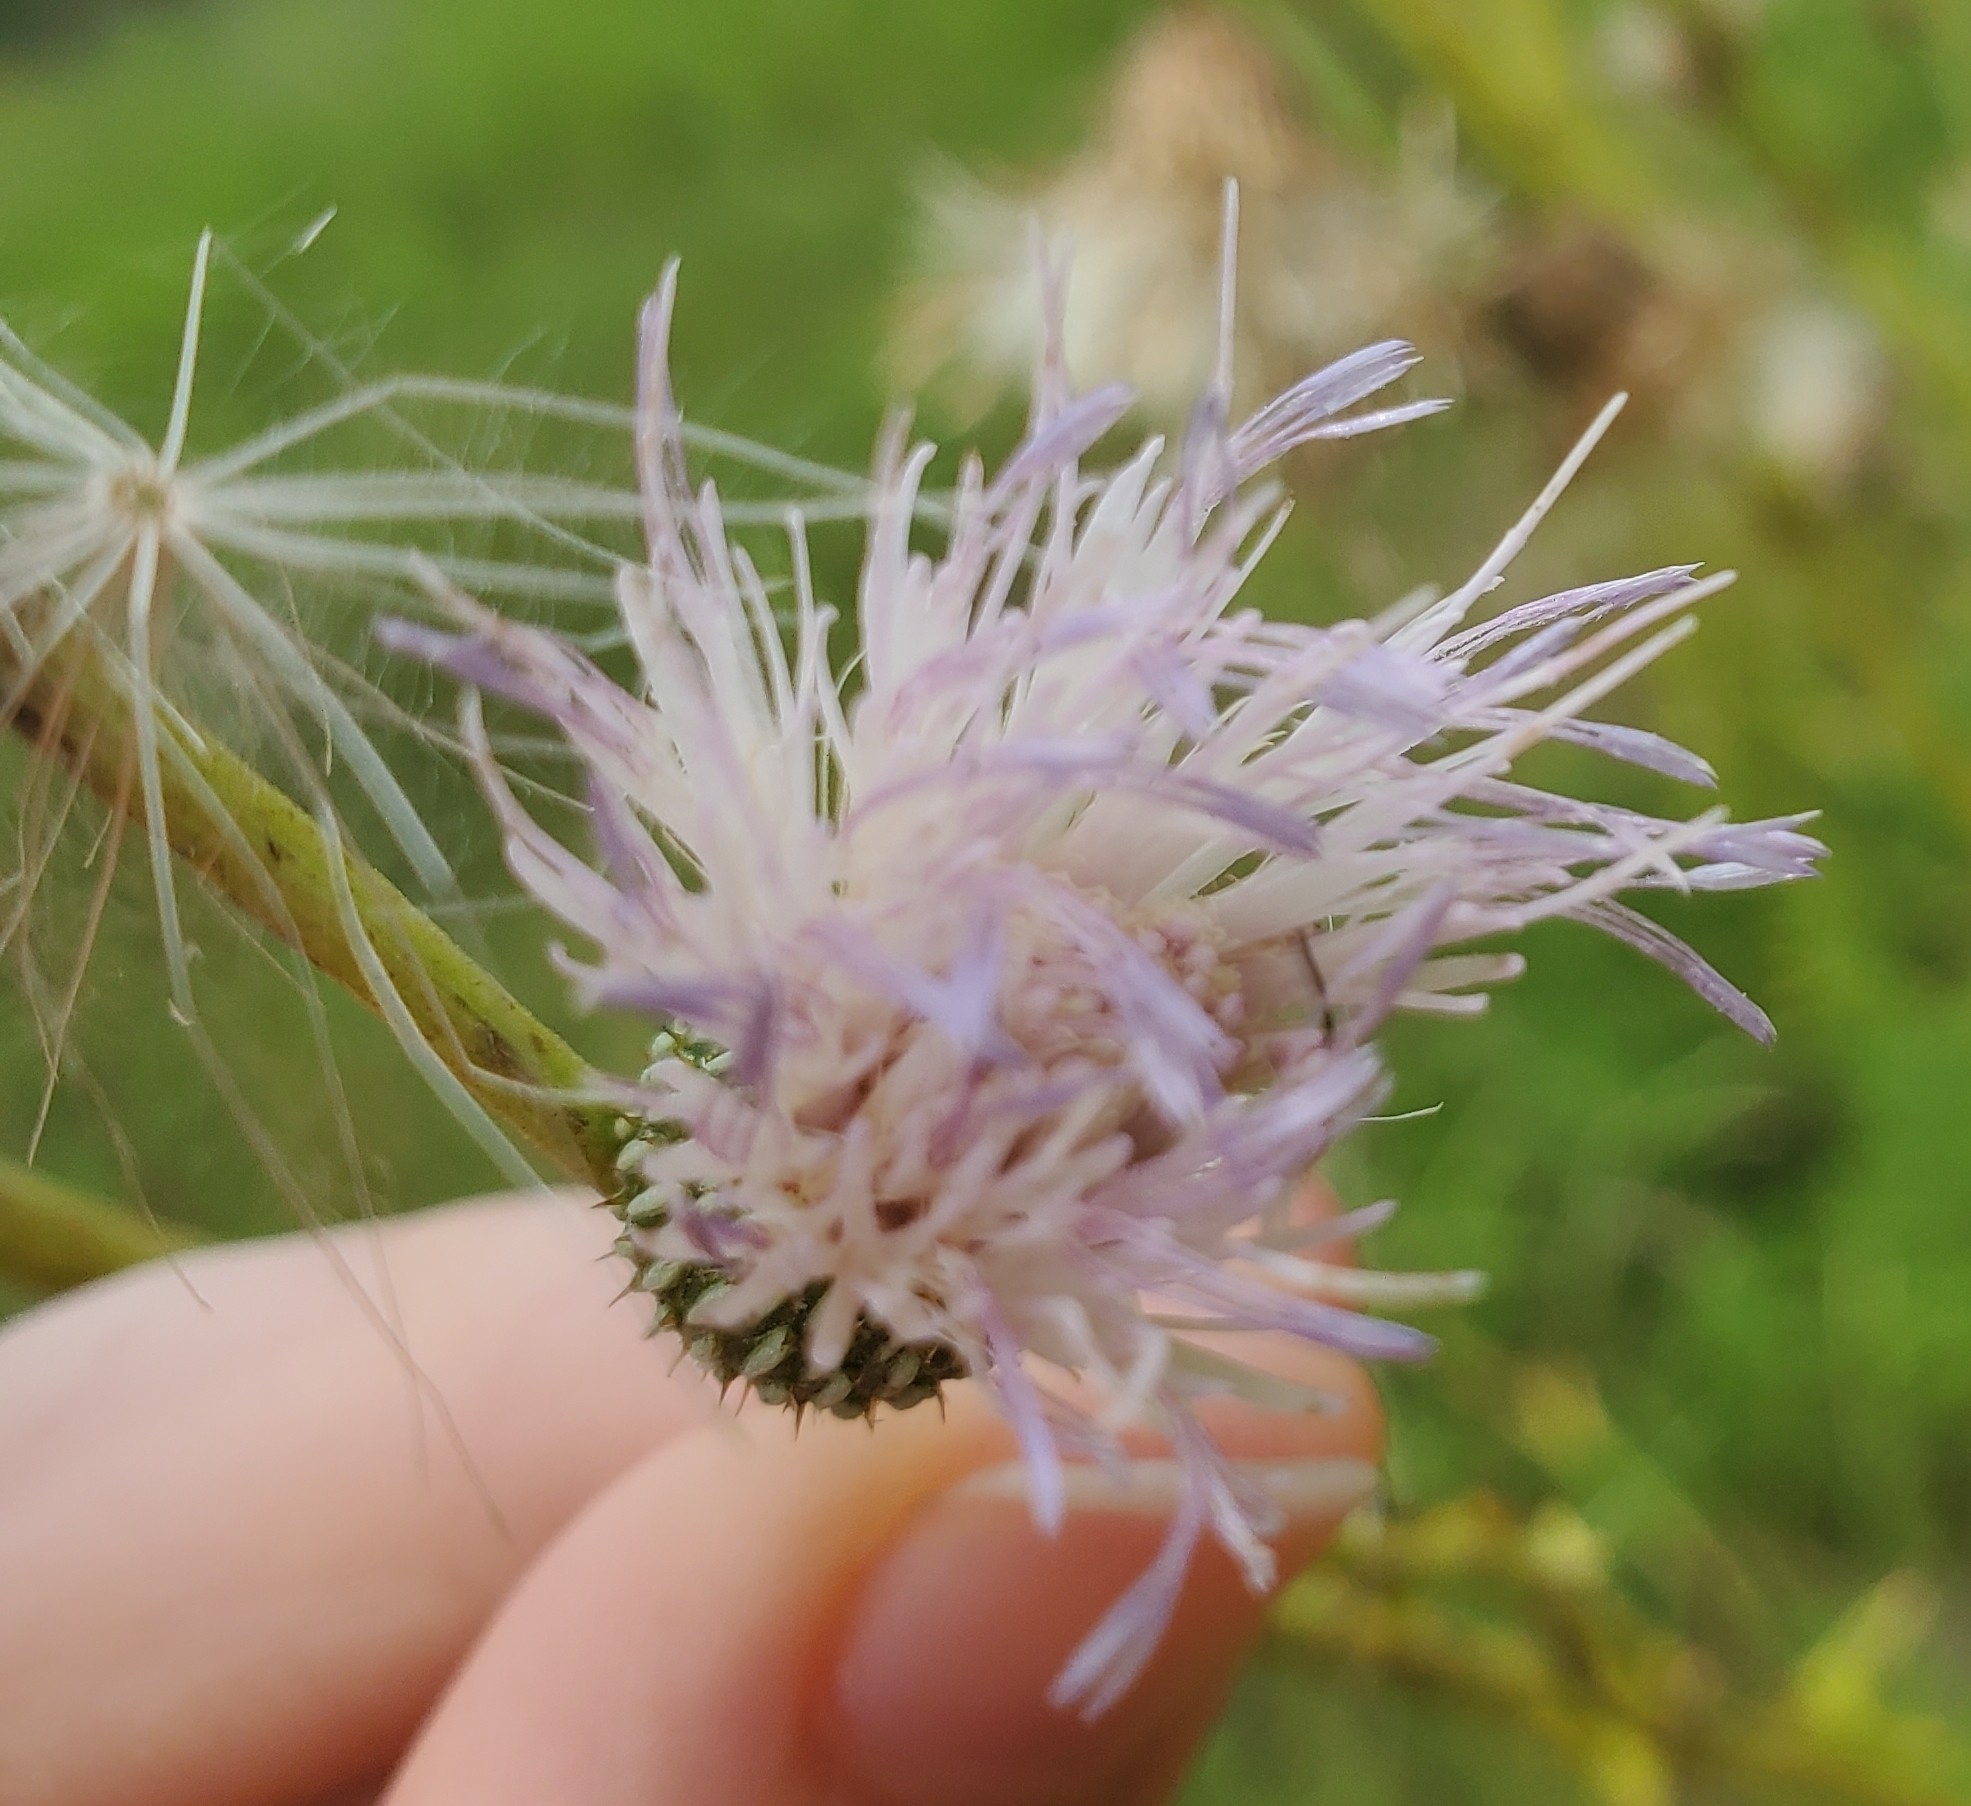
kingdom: Plantae
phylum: Tracheophyta
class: Magnoliopsida
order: Asterales
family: Asteraceae
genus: Cirsium
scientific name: Cirsium nuttalii
